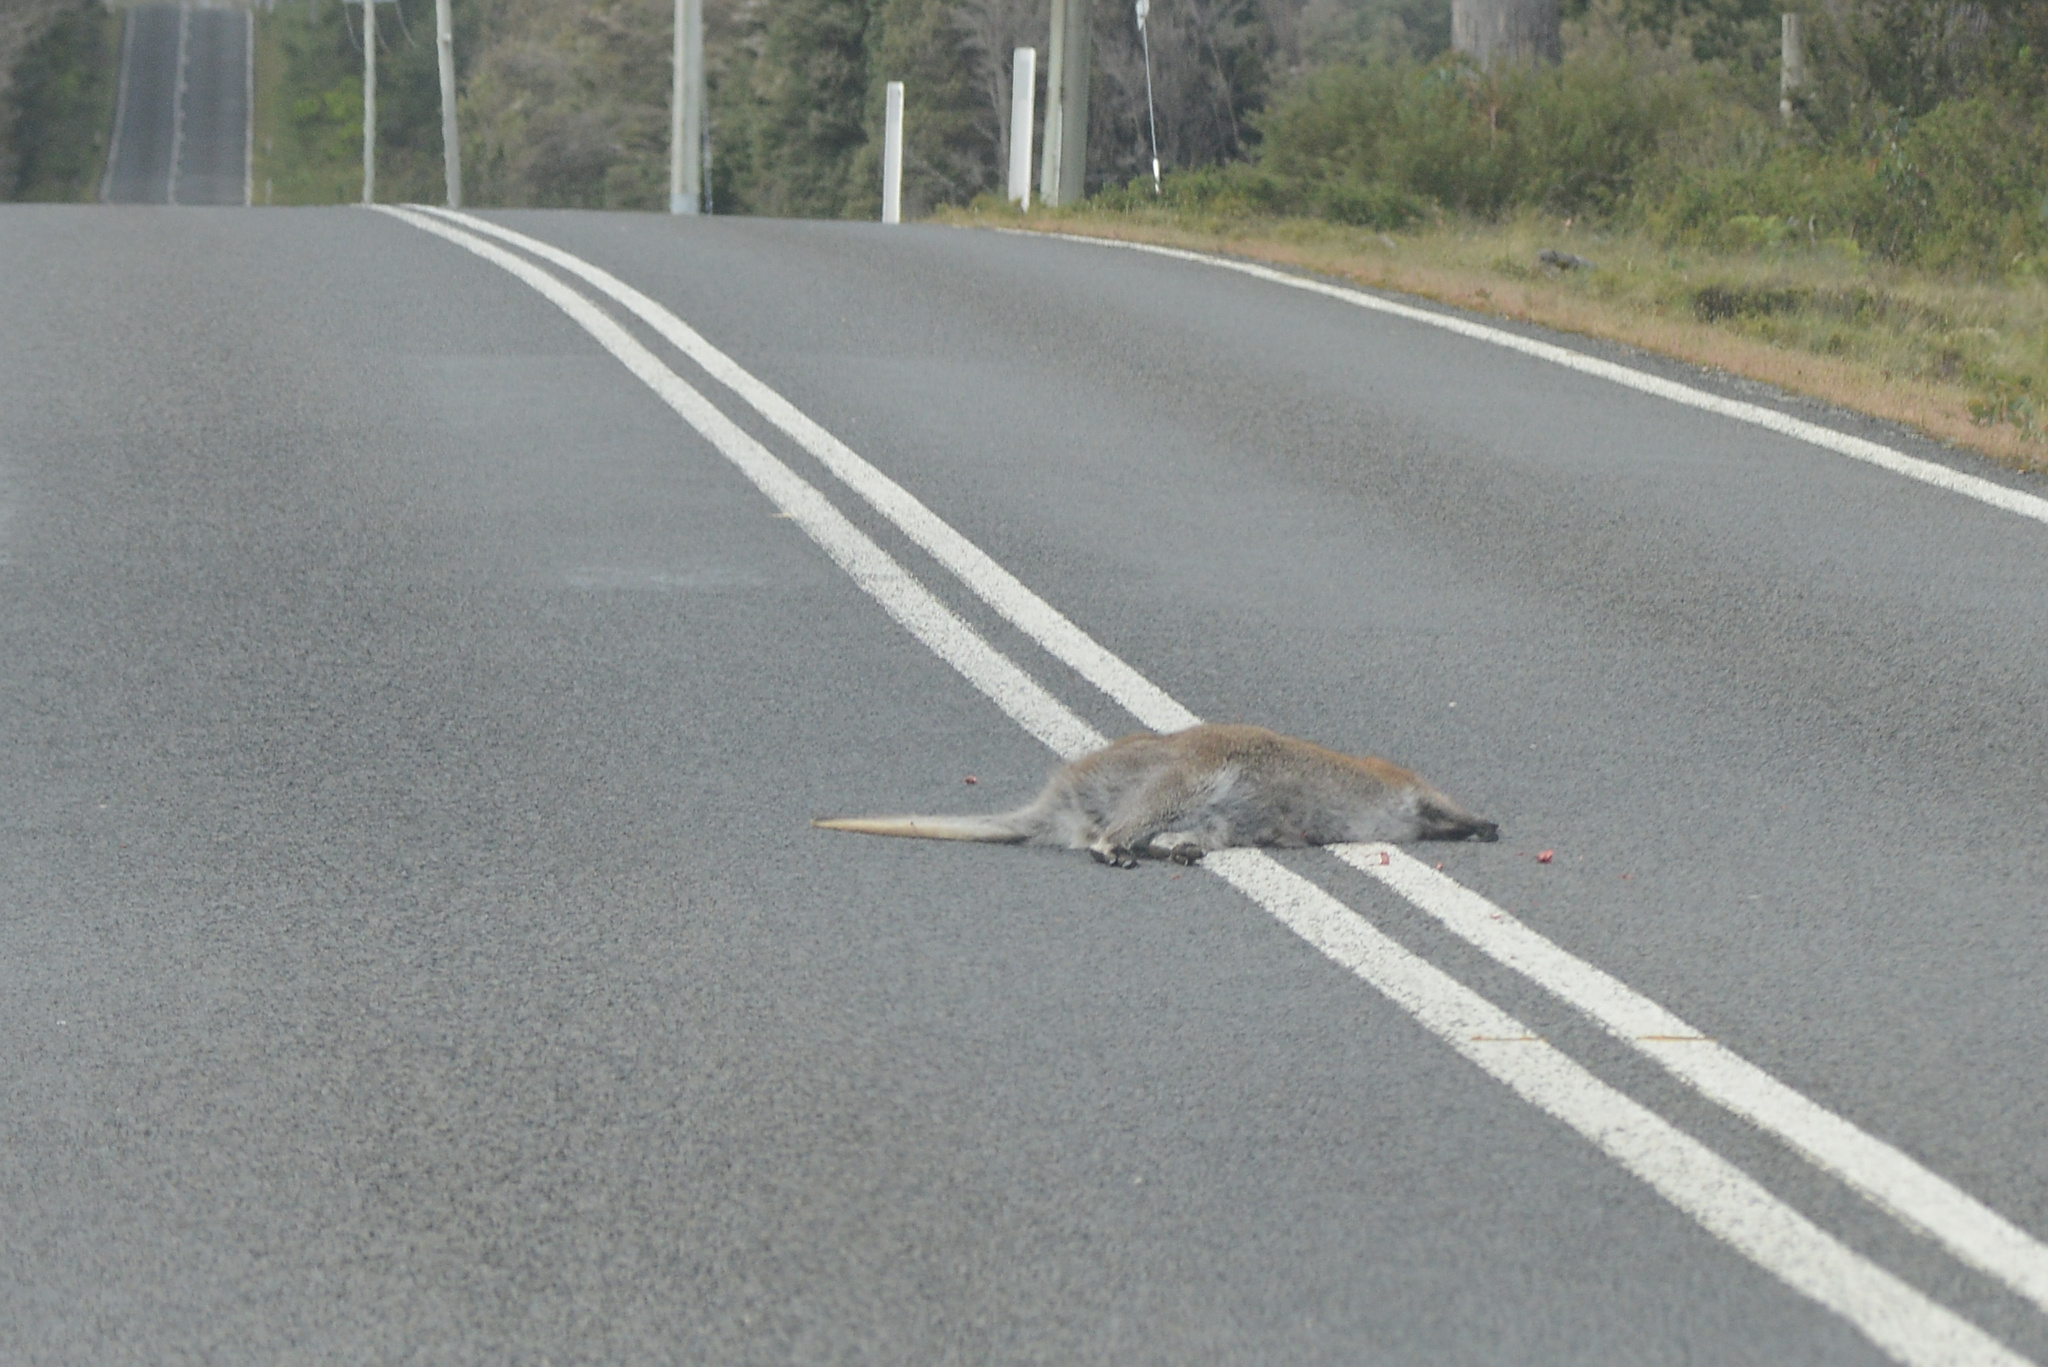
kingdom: Animalia
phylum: Chordata
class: Mammalia
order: Diprotodontia
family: Macropodidae
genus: Notamacropus
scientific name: Notamacropus rufogriseus
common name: Red-necked wallaby
